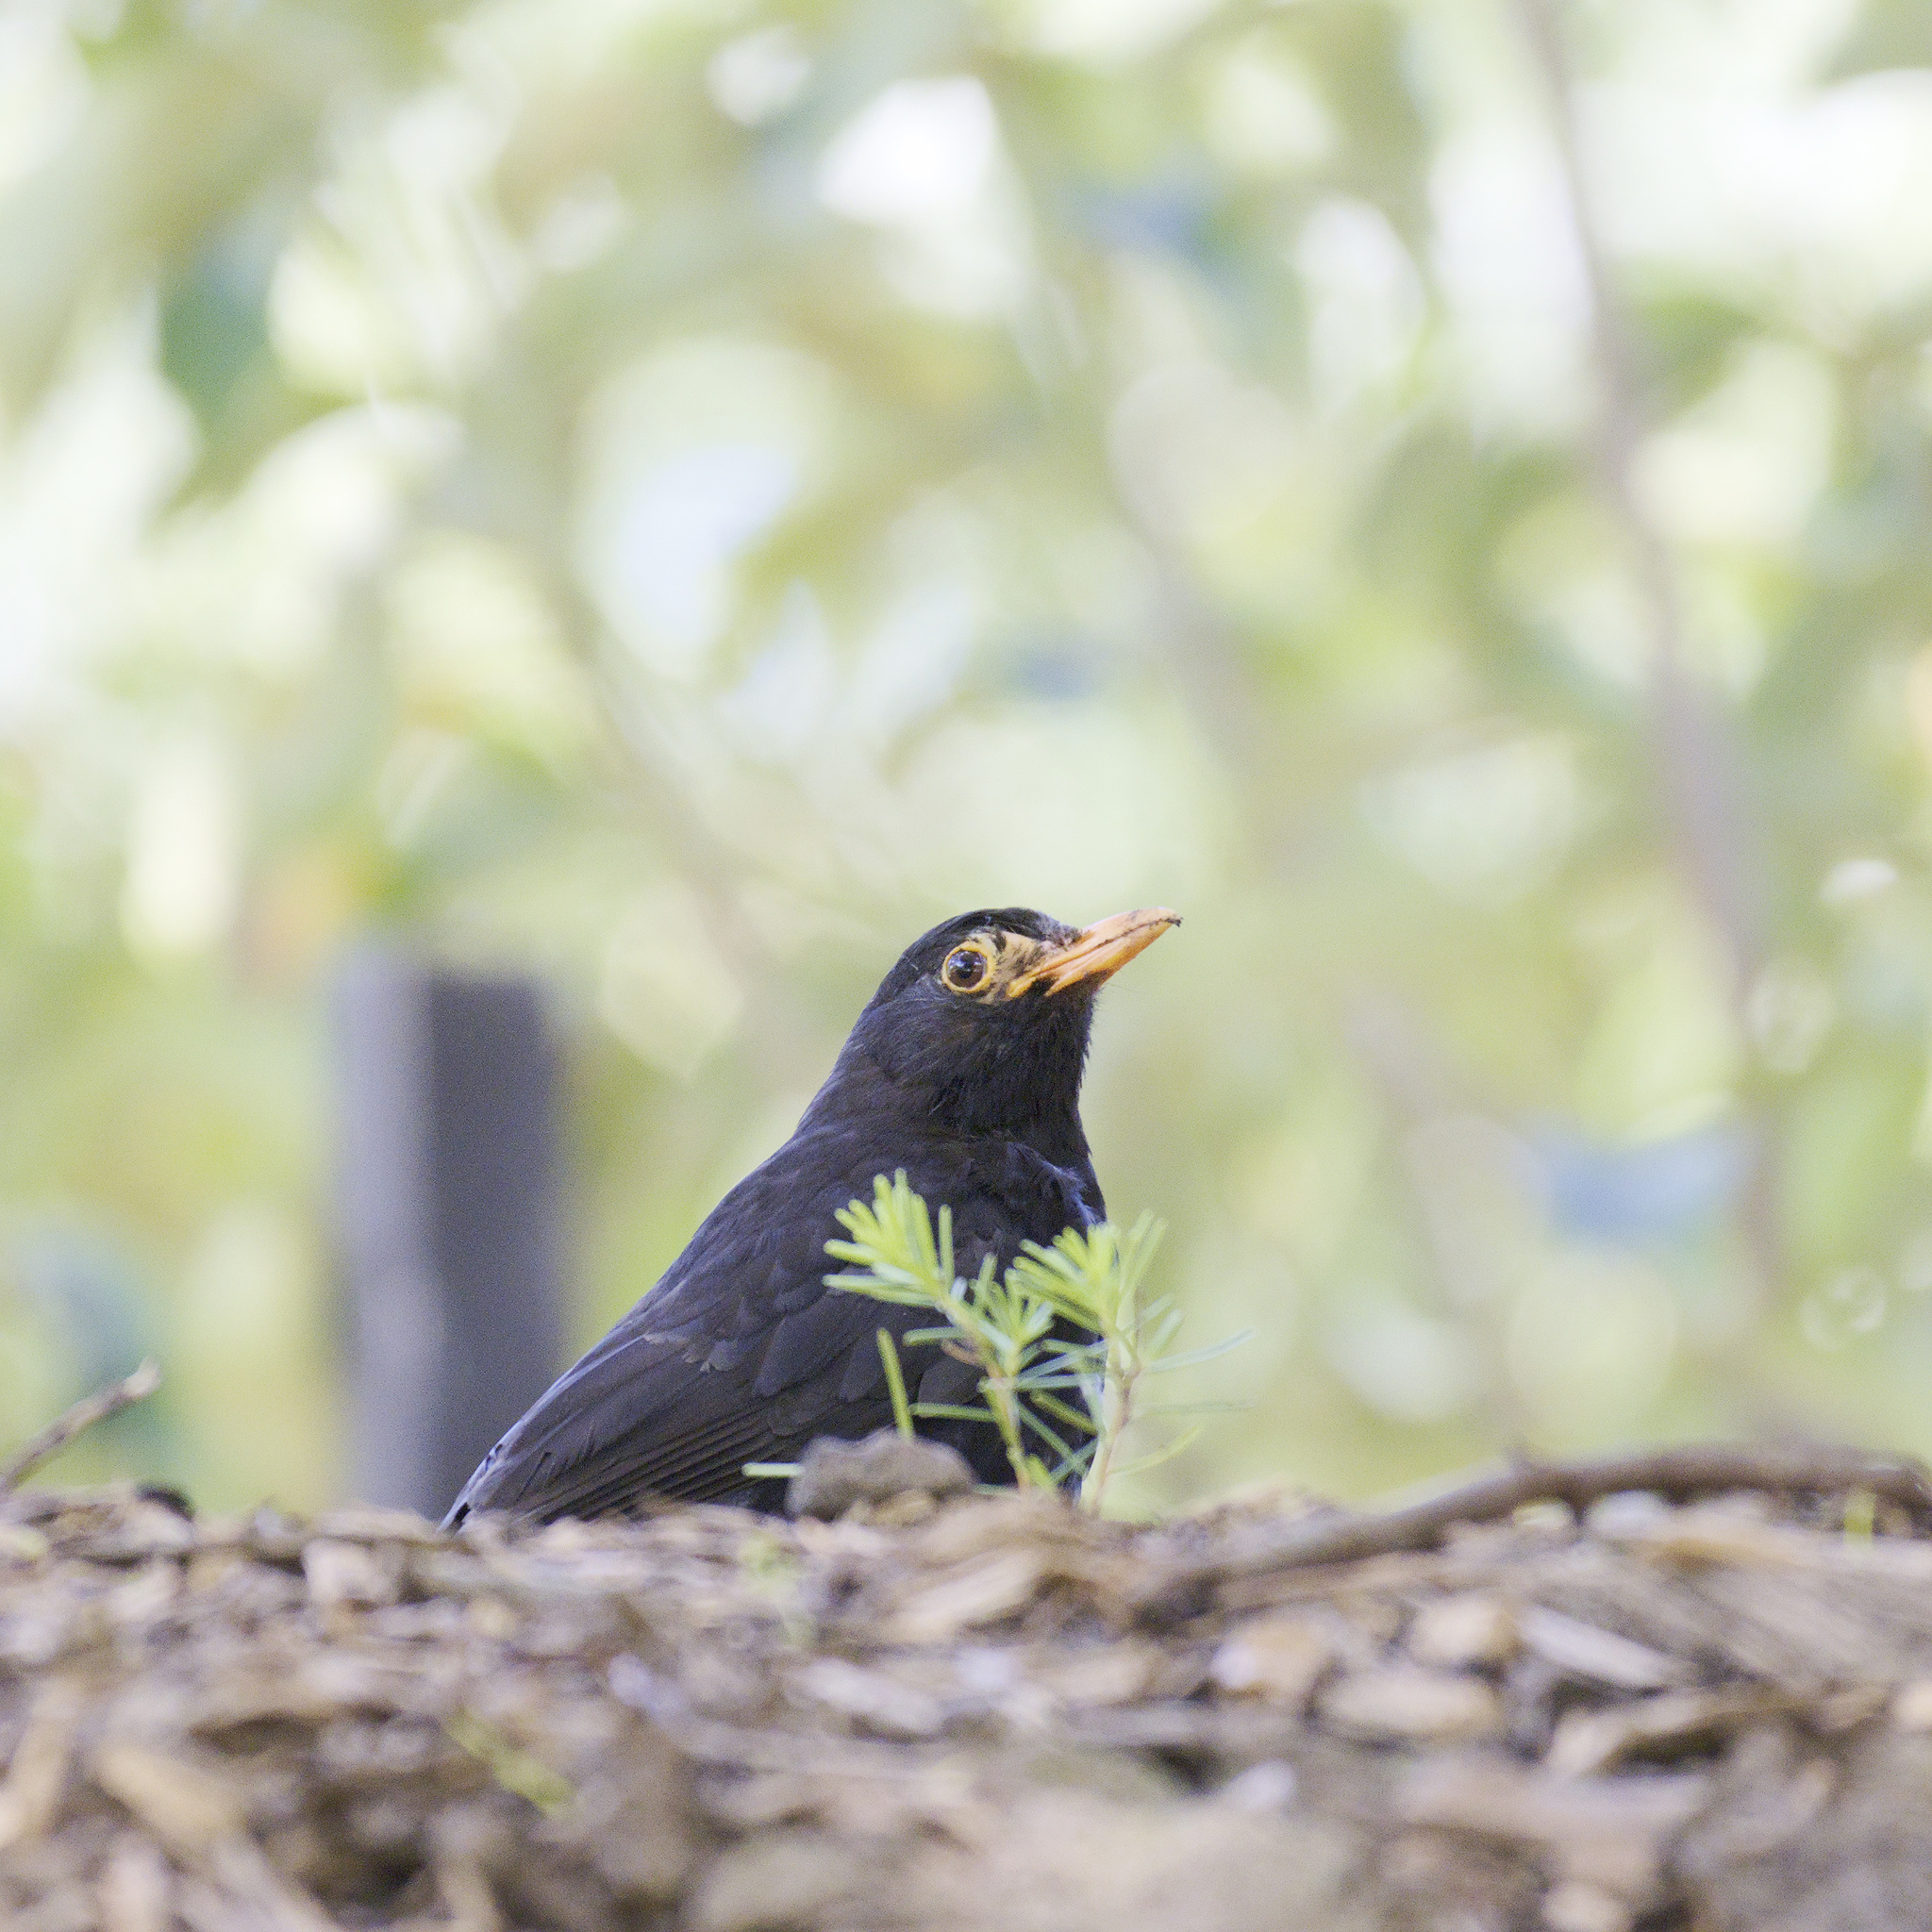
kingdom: Animalia
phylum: Chordata
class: Aves
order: Passeriformes
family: Turdidae
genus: Turdus
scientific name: Turdus merula
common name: Common blackbird
